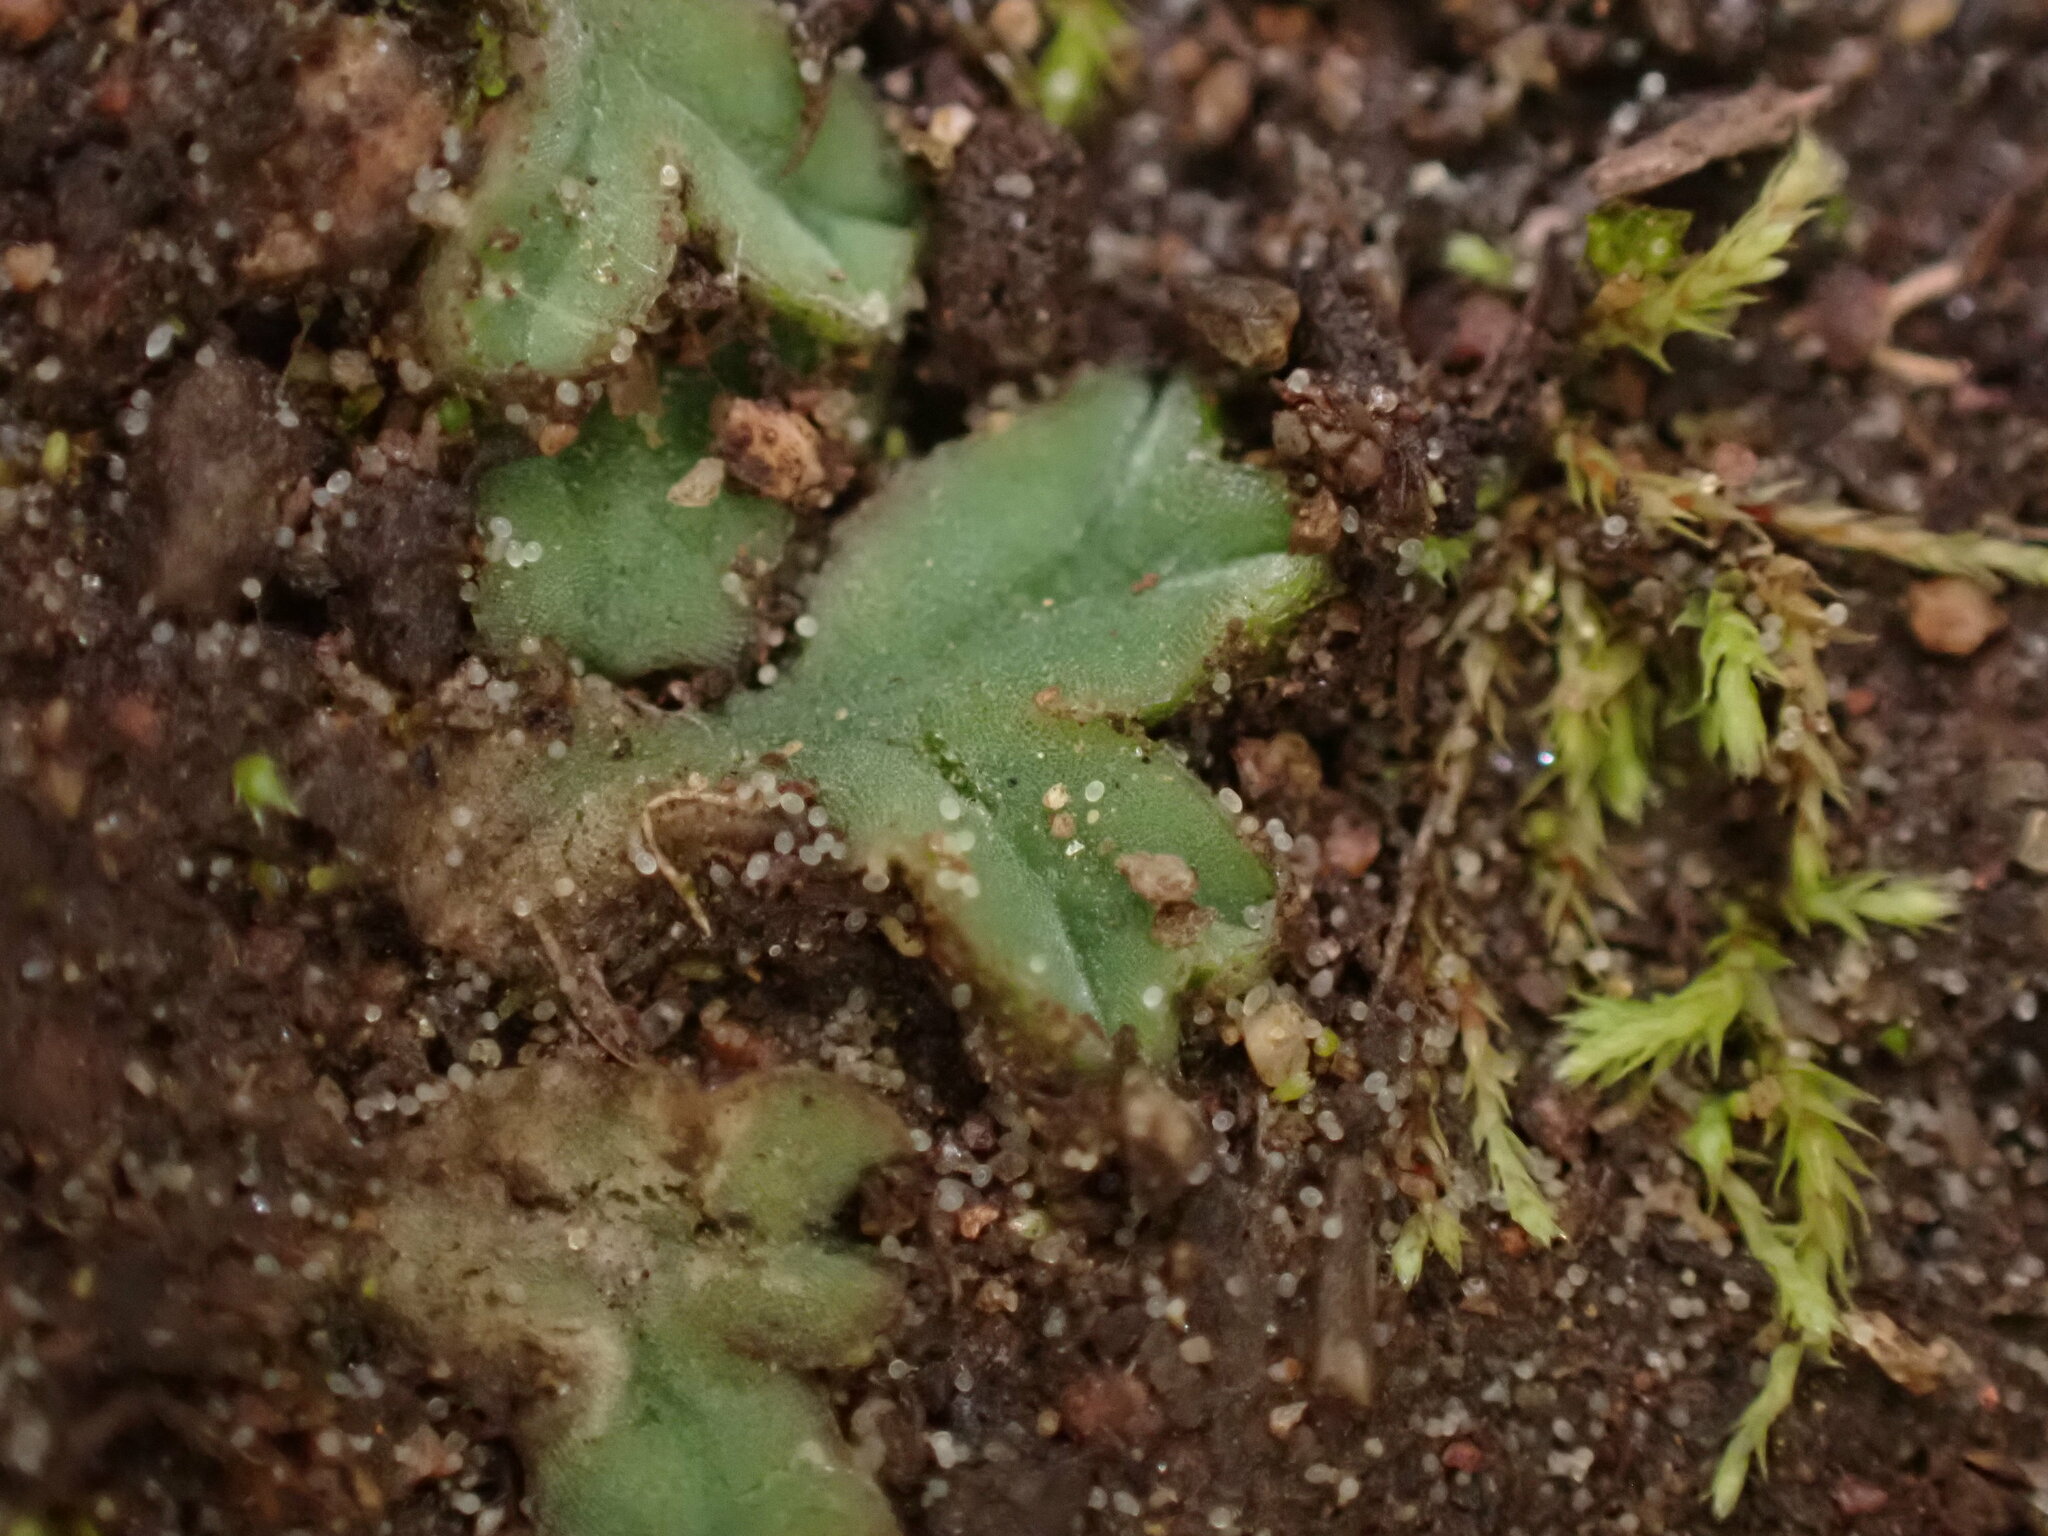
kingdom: Plantae
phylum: Marchantiophyta
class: Marchantiopsida
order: Marchantiales
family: Ricciaceae
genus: Riccia
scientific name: Riccia sorocarpa
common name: Common crystalwort
